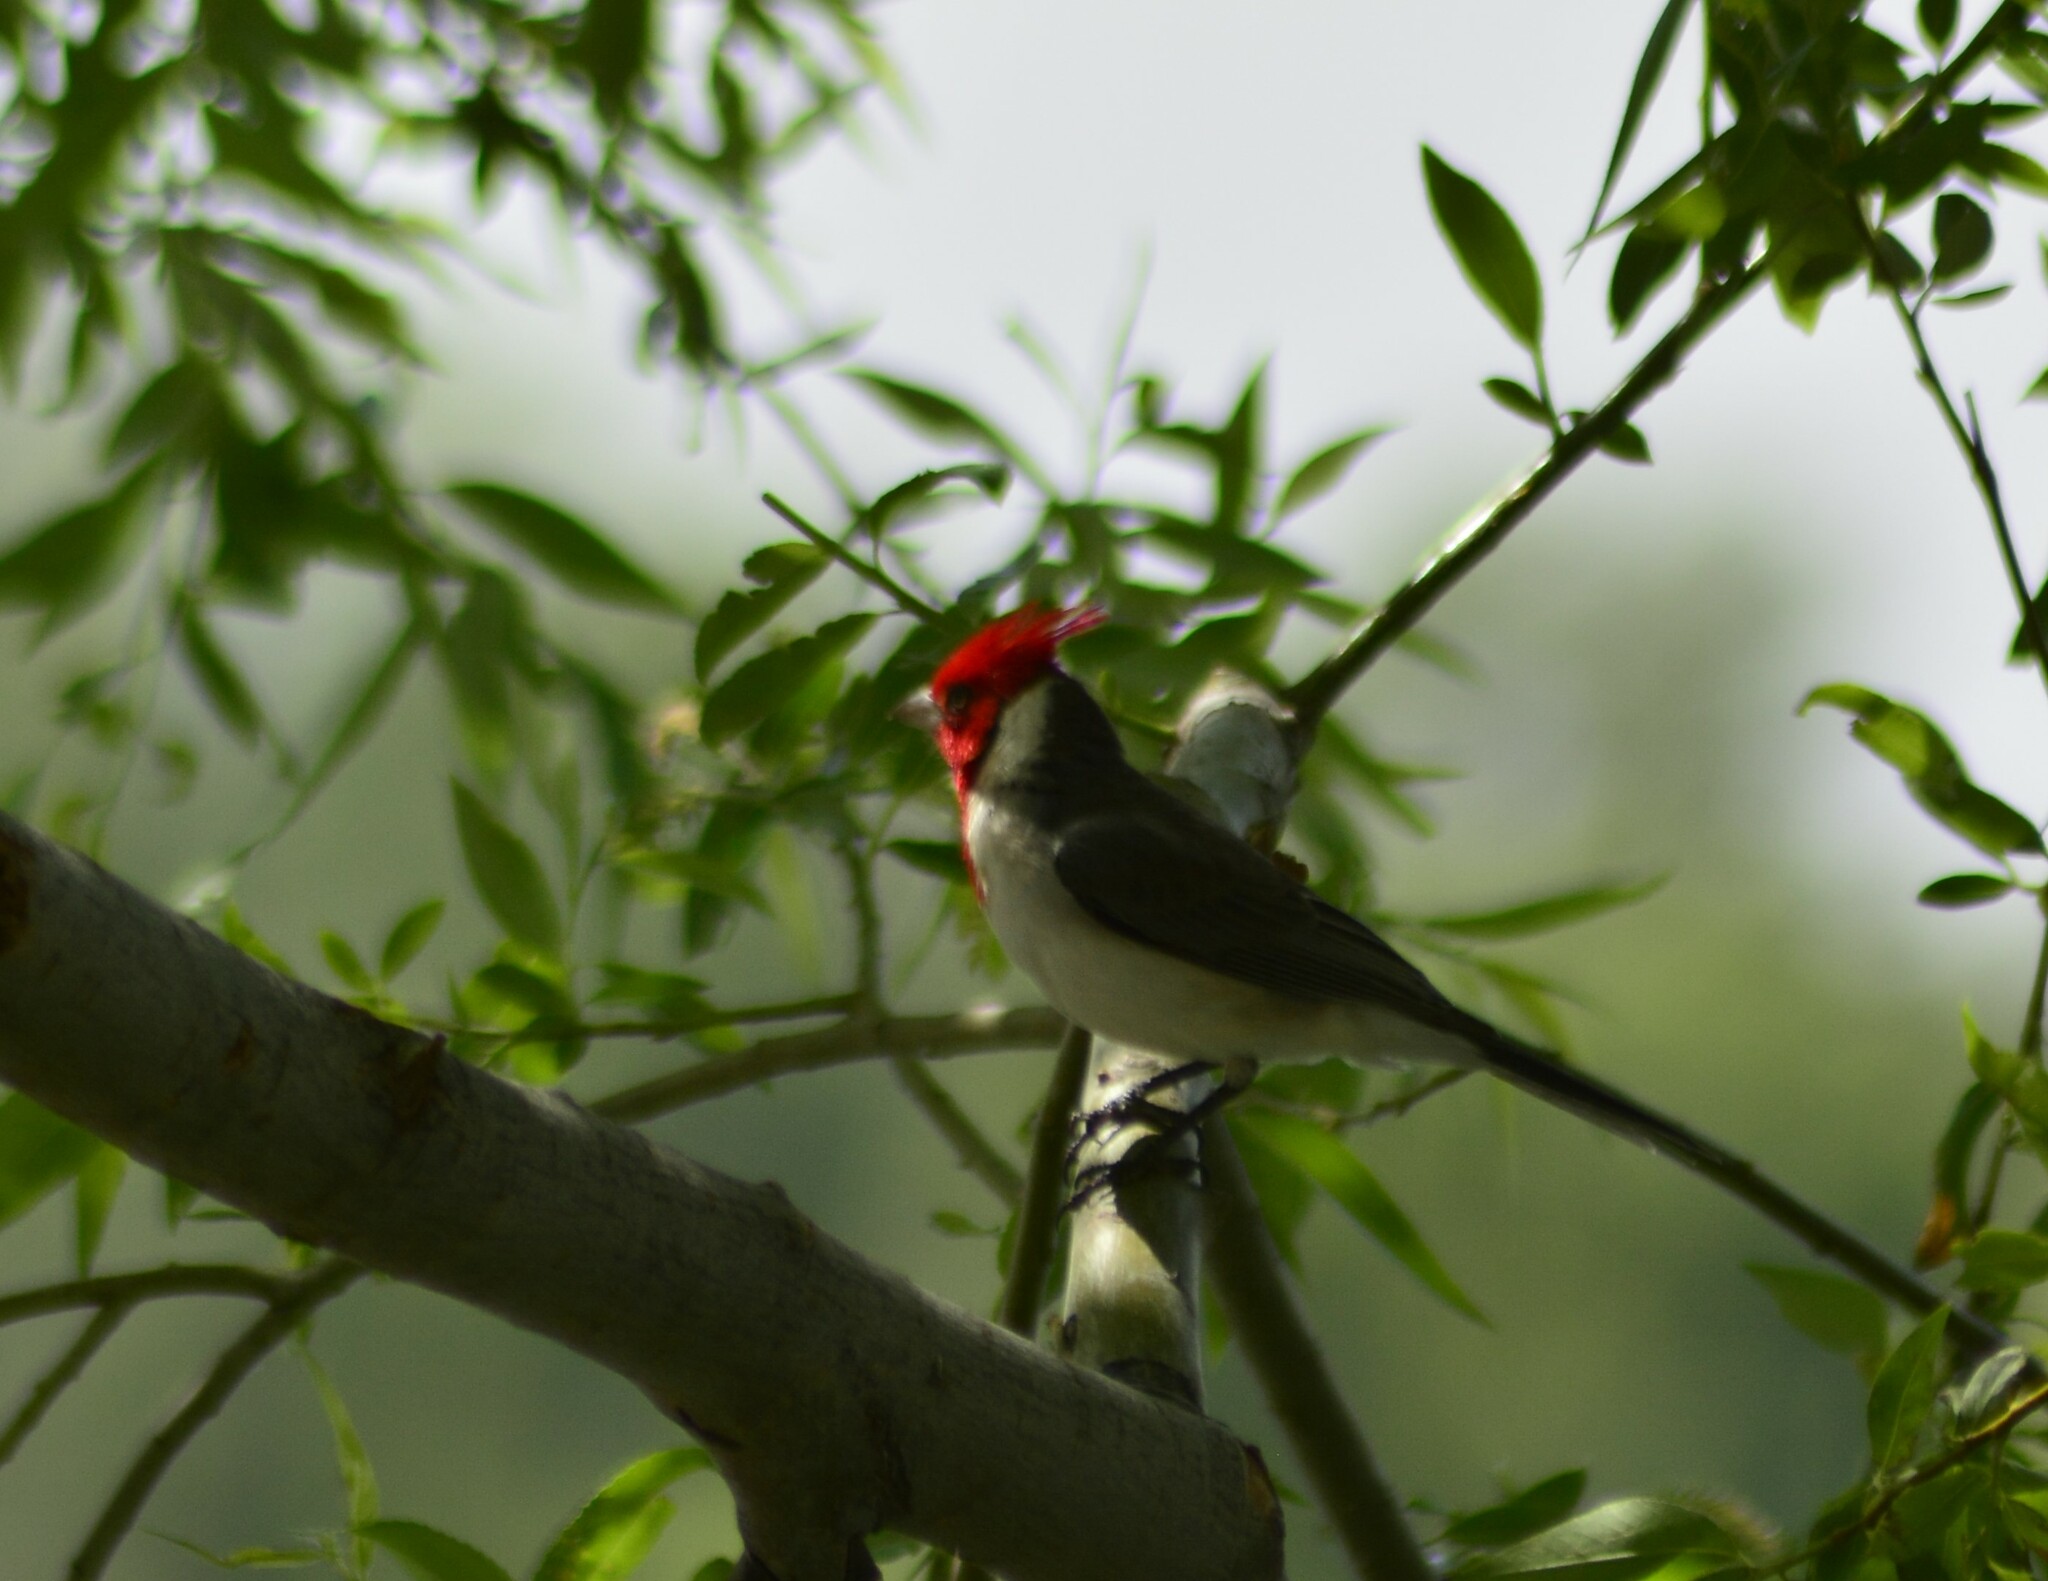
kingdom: Animalia
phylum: Chordata
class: Aves
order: Passeriformes
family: Thraupidae
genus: Paroaria
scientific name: Paroaria coronata
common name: Red-crested cardinal
